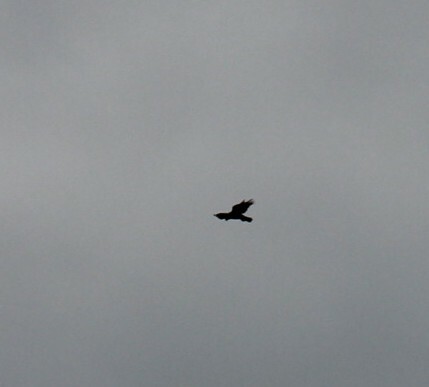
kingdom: Animalia
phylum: Chordata
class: Aves
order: Accipitriformes
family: Accipitridae
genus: Buteo
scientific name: Buteo buteo
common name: Common buzzard
